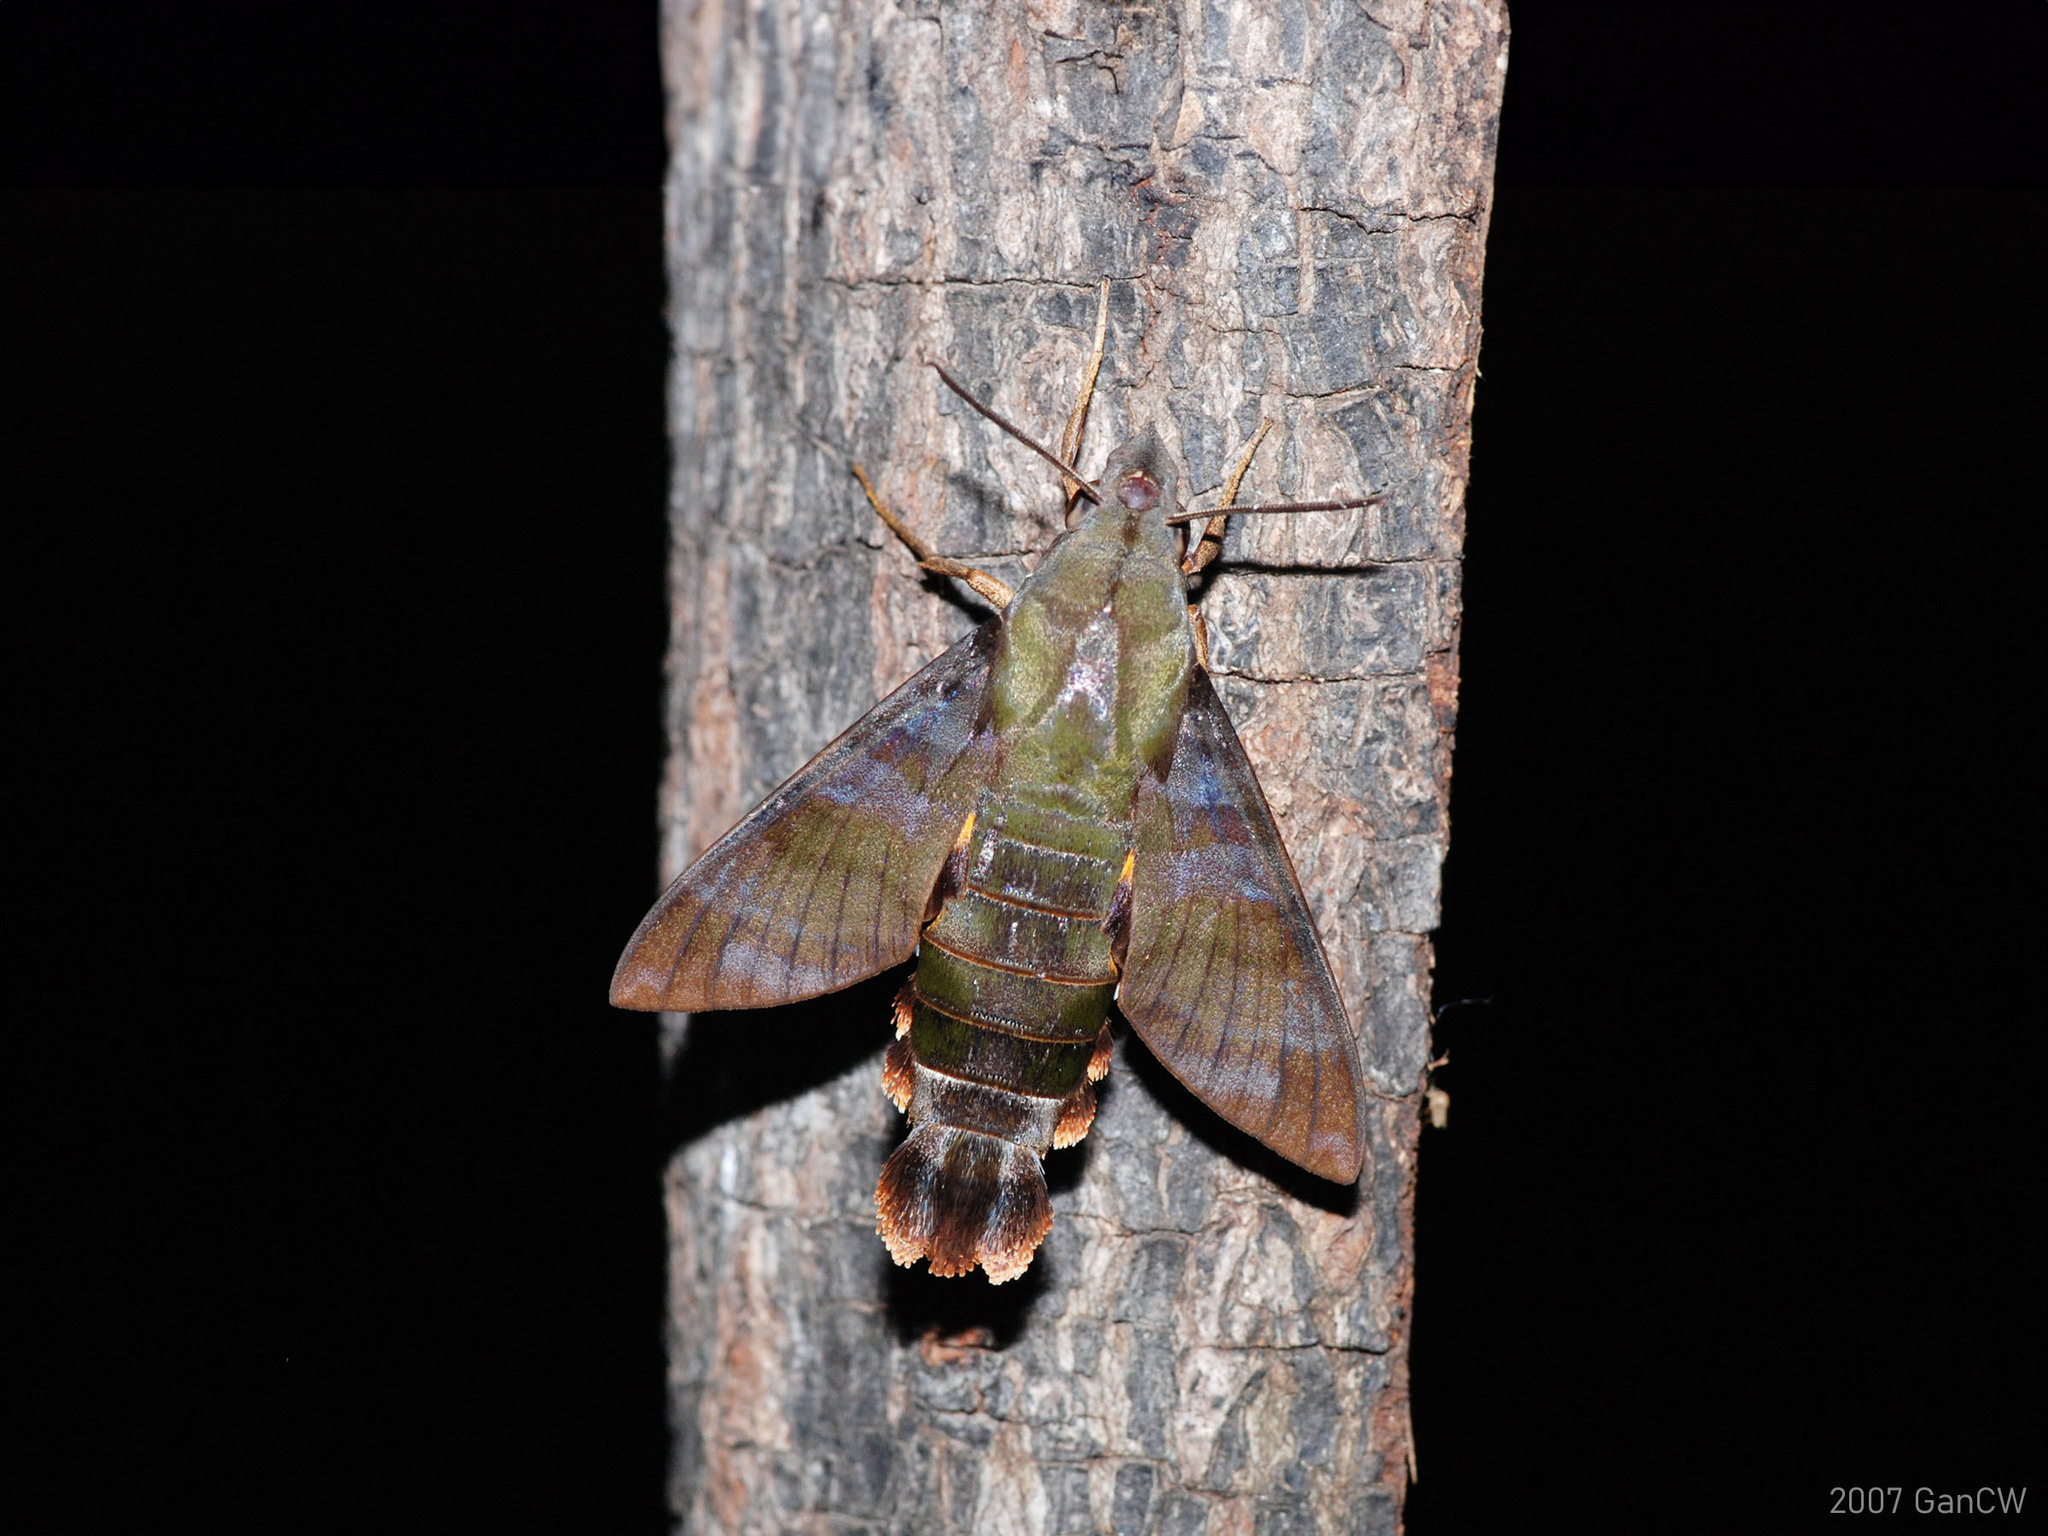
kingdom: Animalia
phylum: Arthropoda
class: Insecta
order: Lepidoptera
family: Sphingidae
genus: Macroglossum
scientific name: Macroglossum corythus
